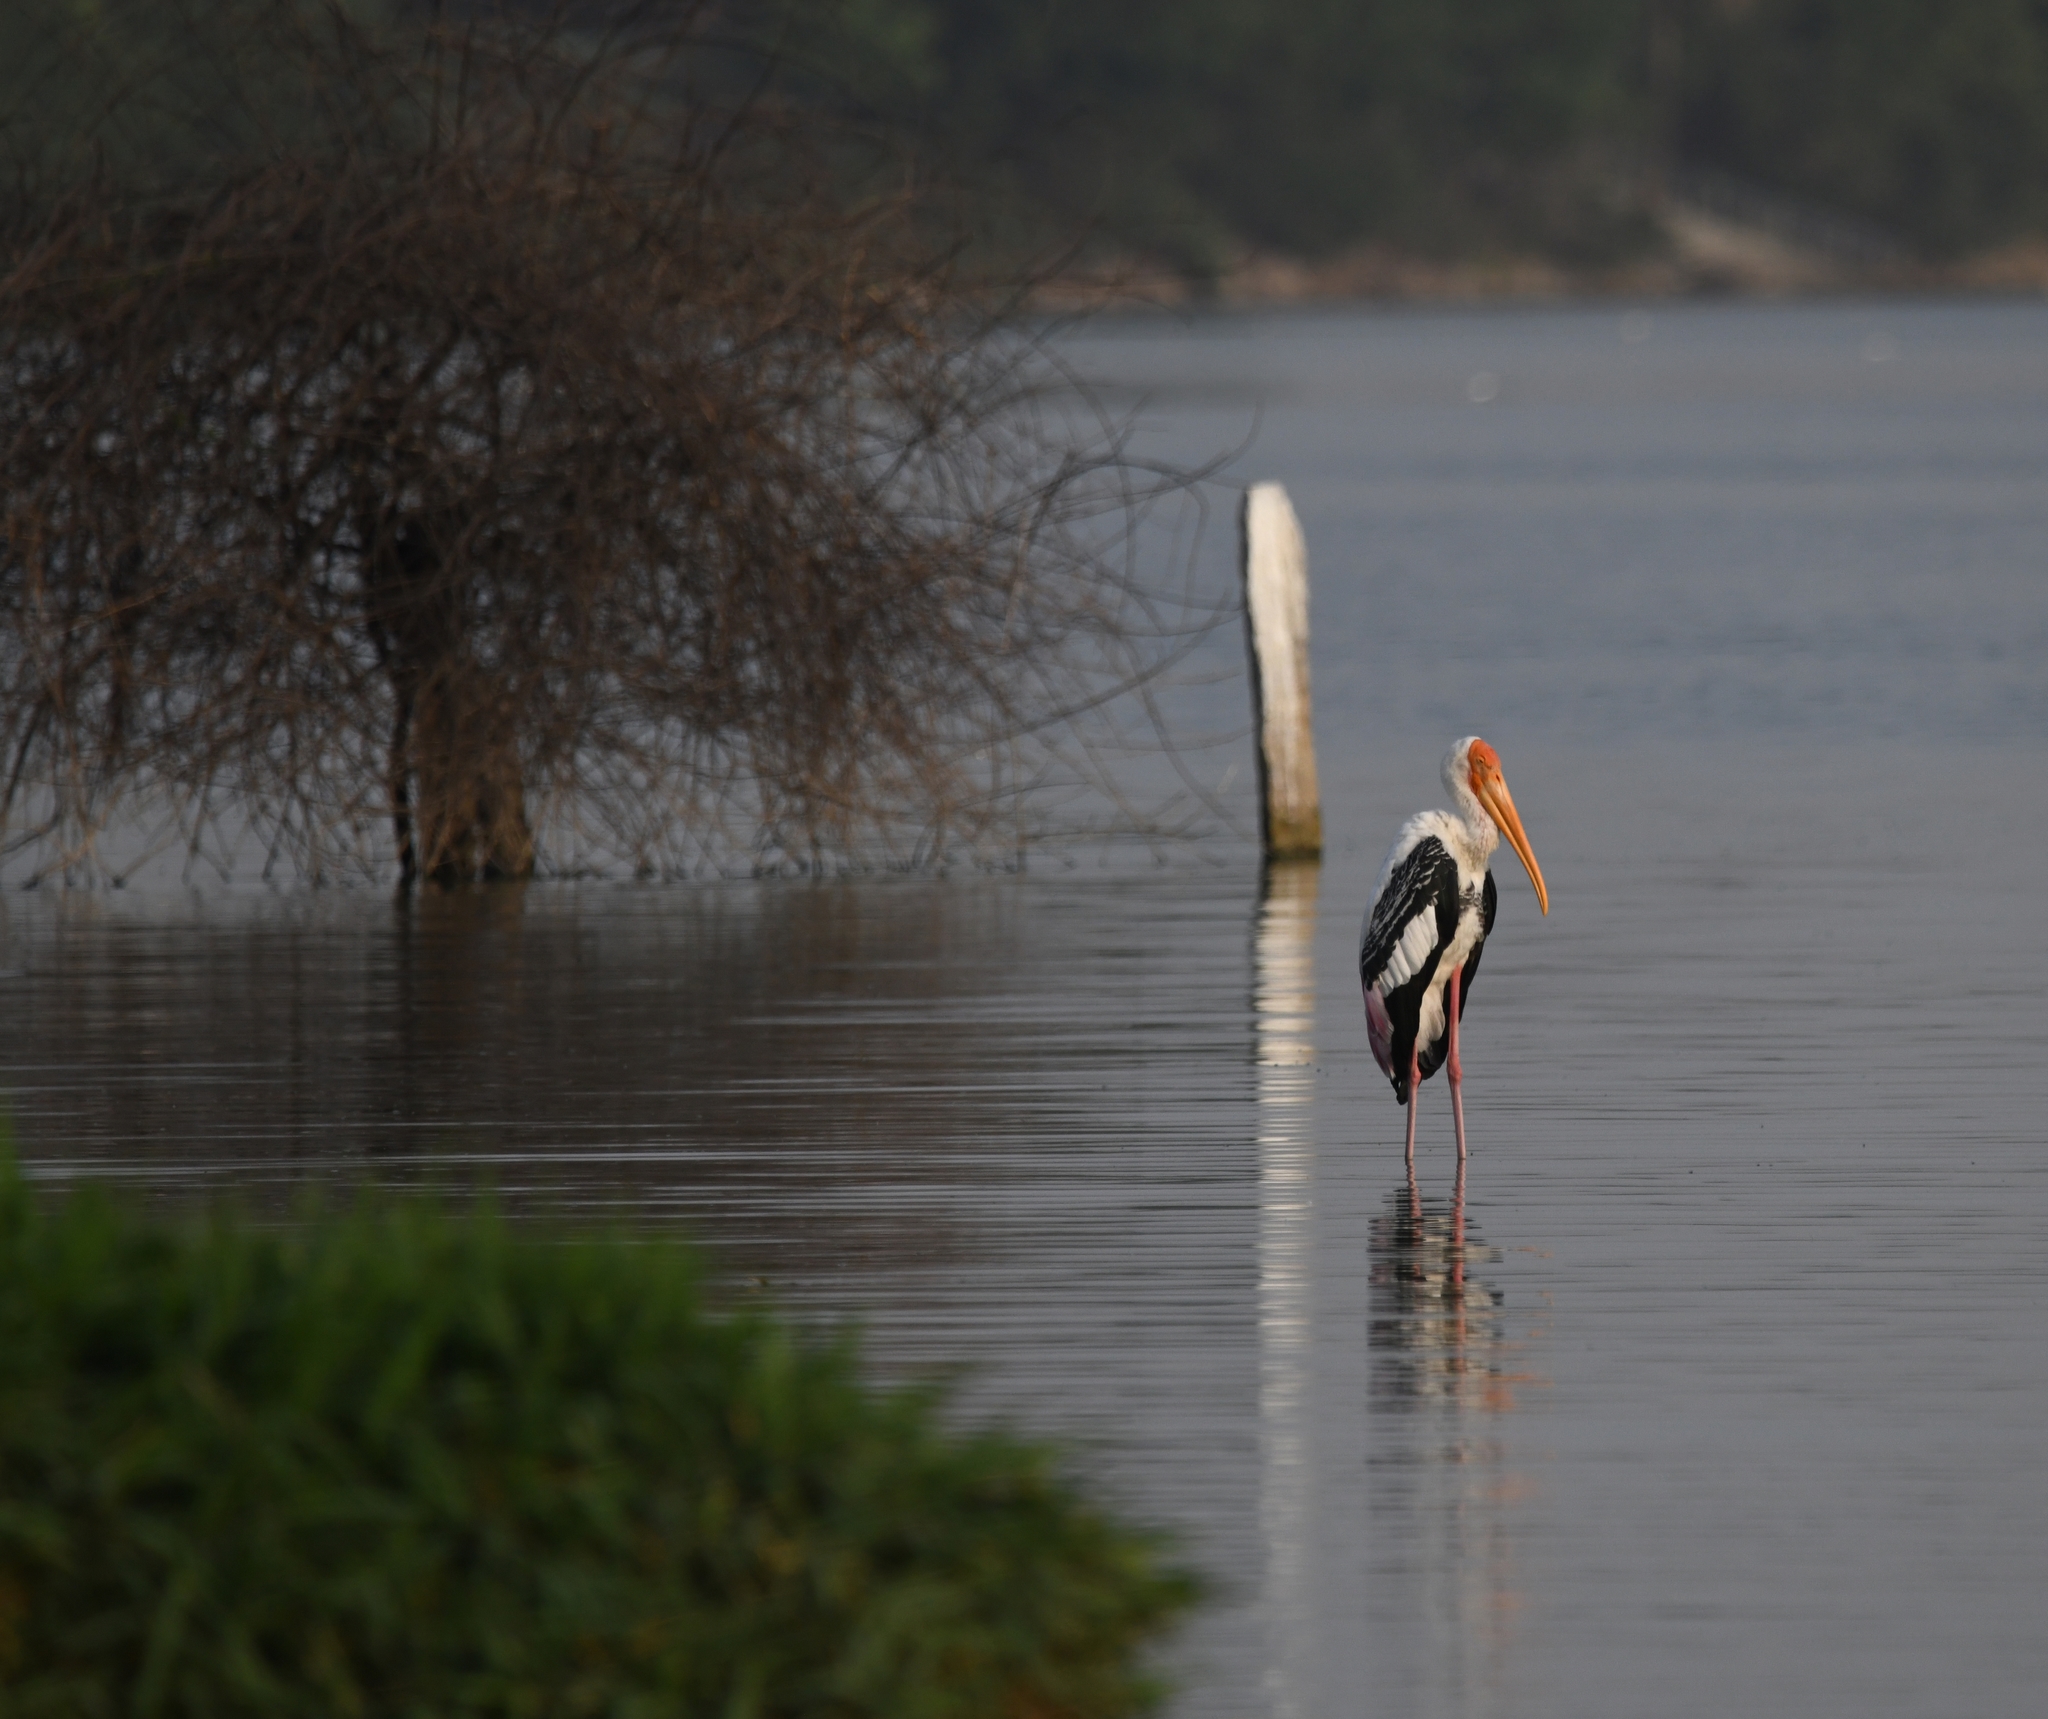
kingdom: Animalia
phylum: Chordata
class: Aves
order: Ciconiiformes
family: Ciconiidae
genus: Mycteria
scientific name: Mycteria leucocephala
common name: Painted stork
